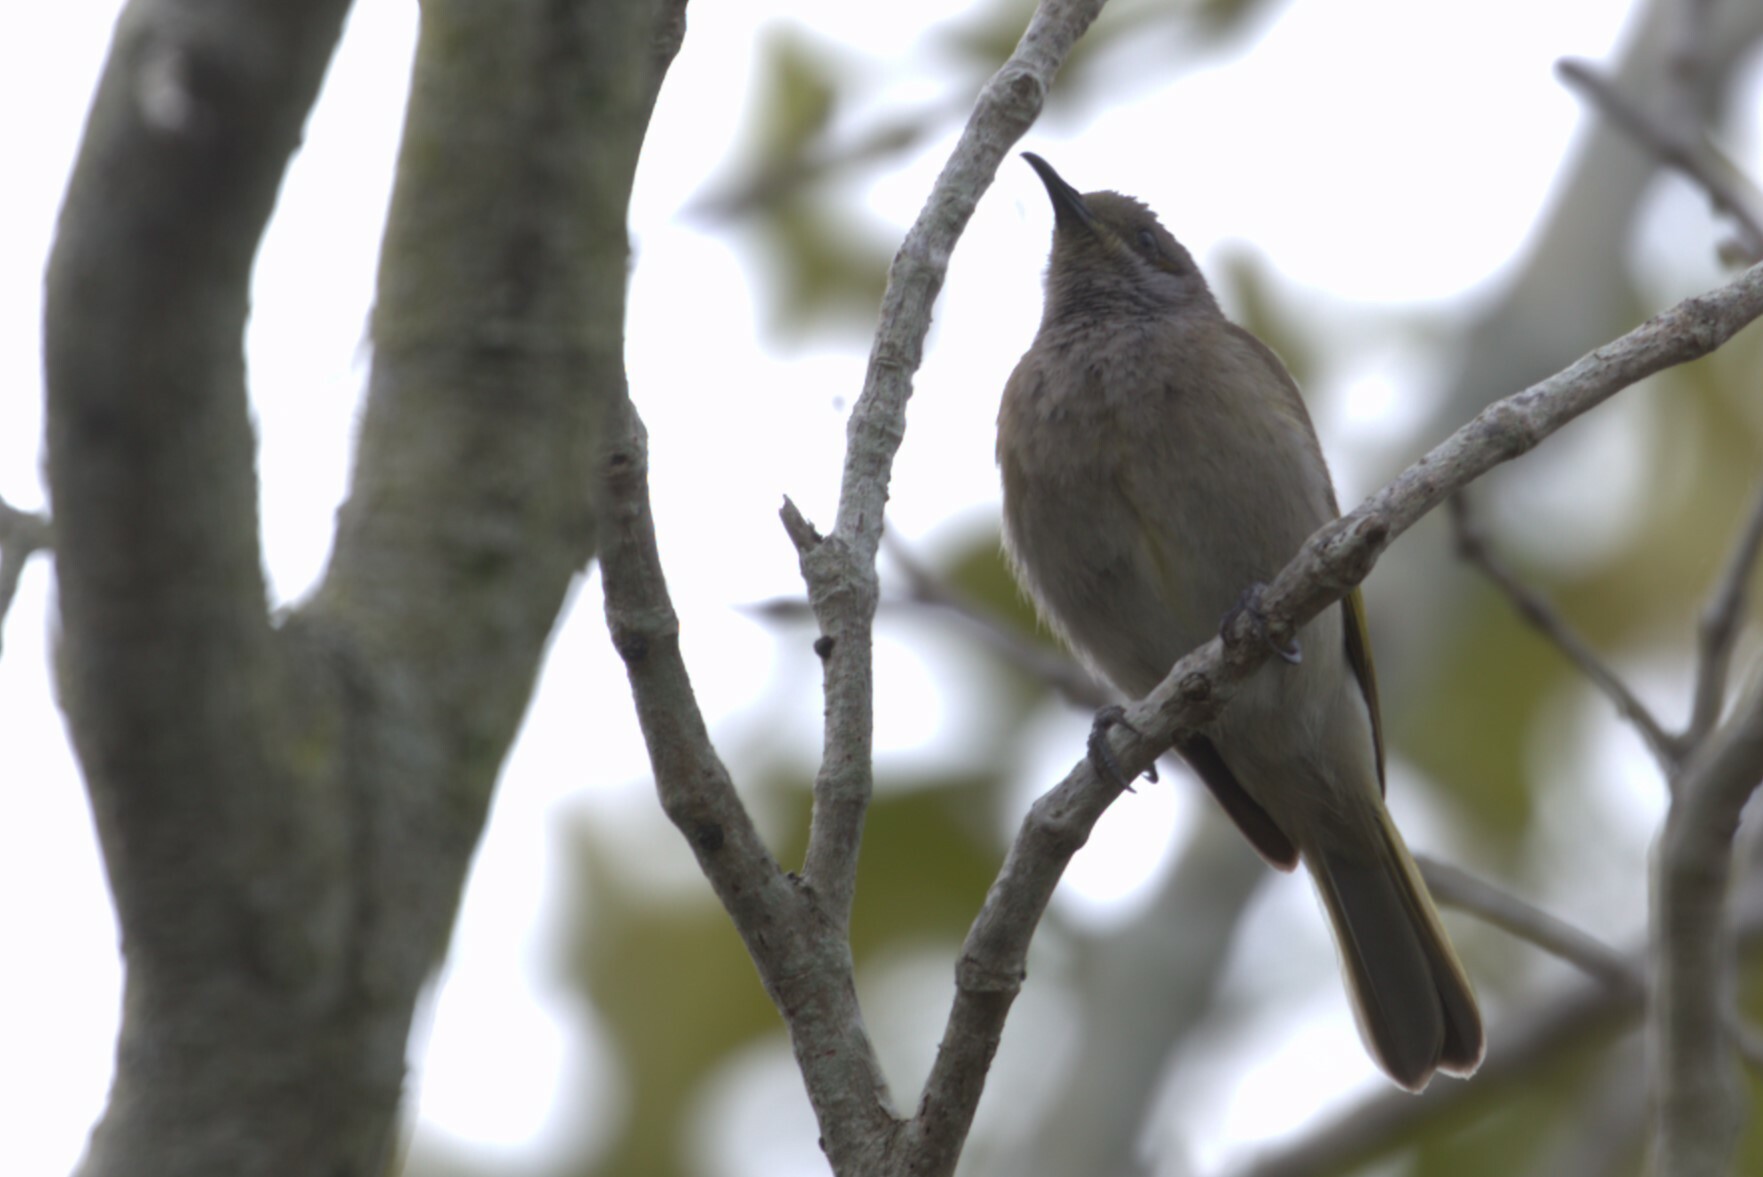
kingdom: Animalia
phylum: Chordata
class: Aves
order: Passeriformes
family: Meliphagidae
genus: Lichmera
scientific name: Lichmera indistincta
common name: Brown honeyeater
